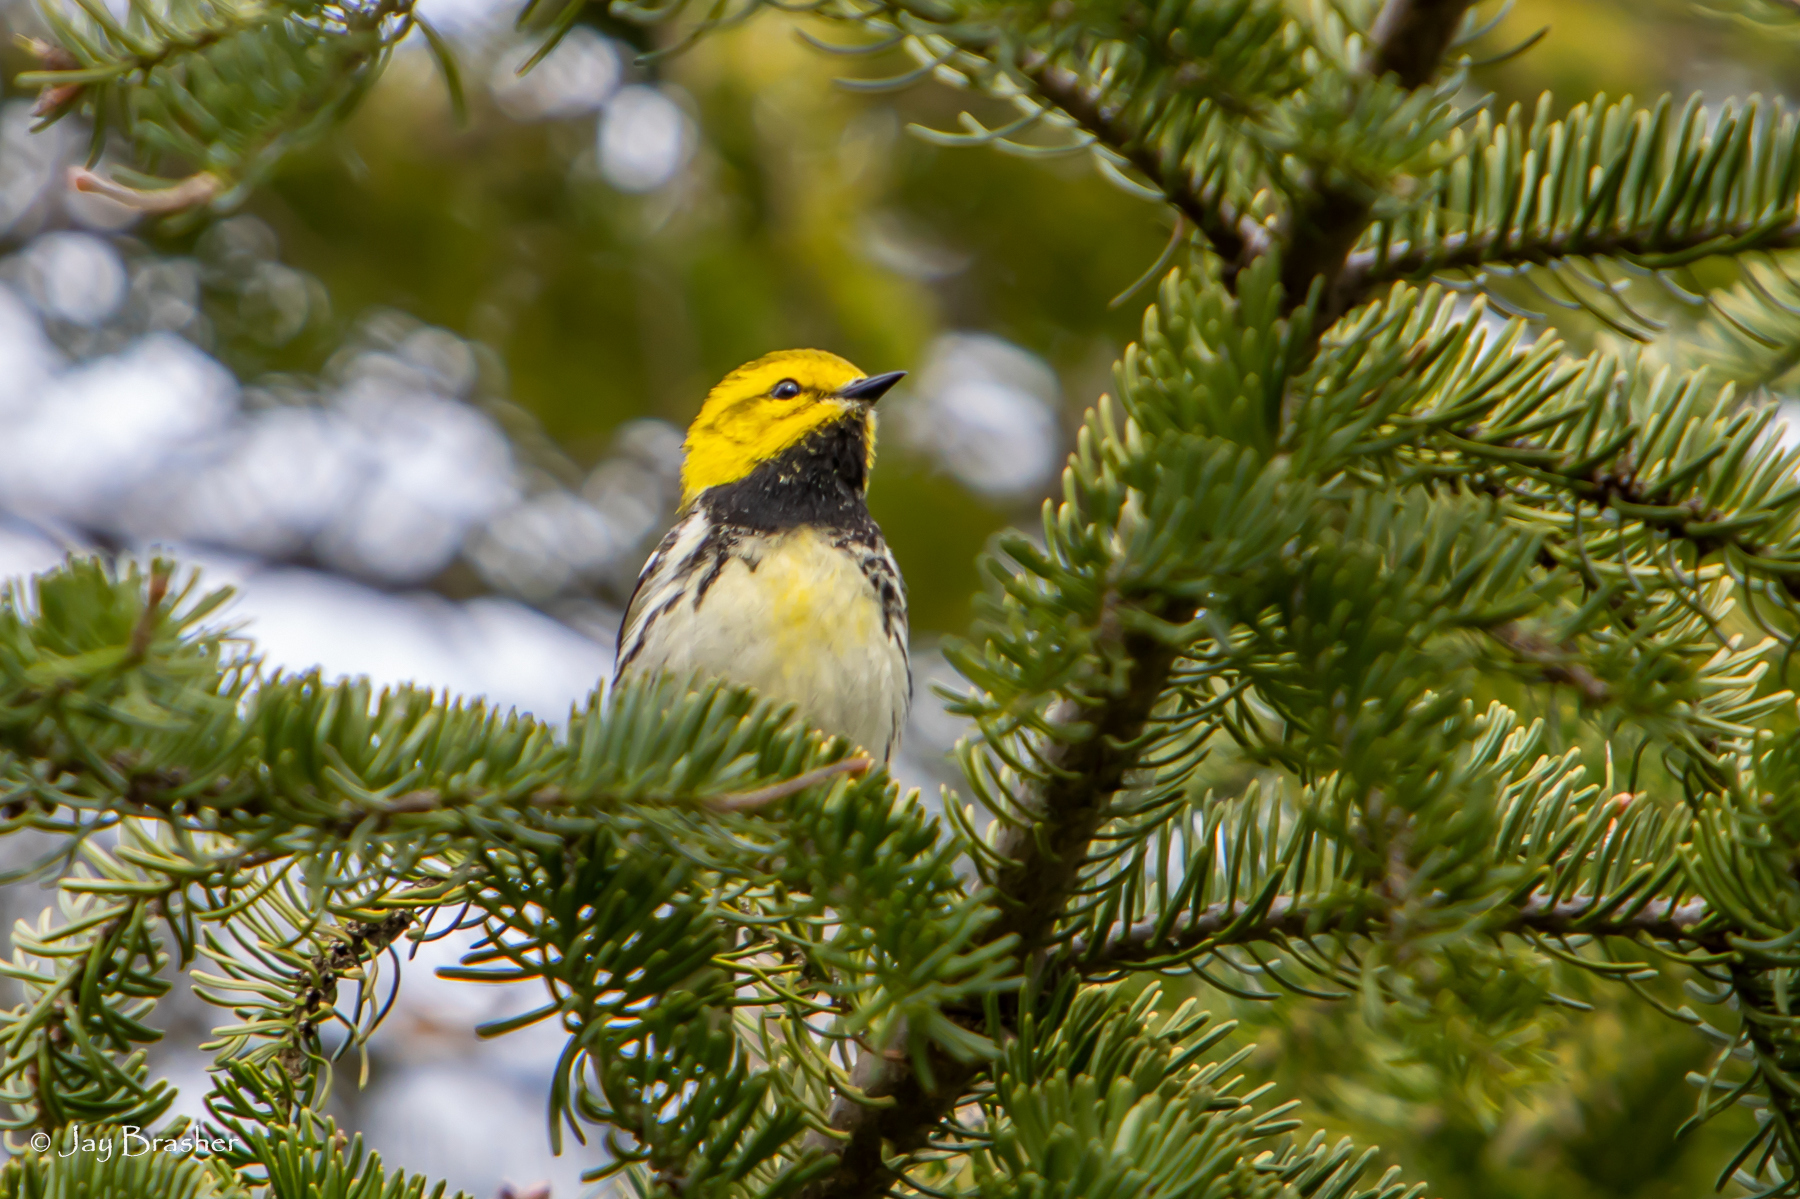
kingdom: Animalia
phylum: Chordata
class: Aves
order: Passeriformes
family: Parulidae
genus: Setophaga
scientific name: Setophaga virens
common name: Black-throated green warbler
